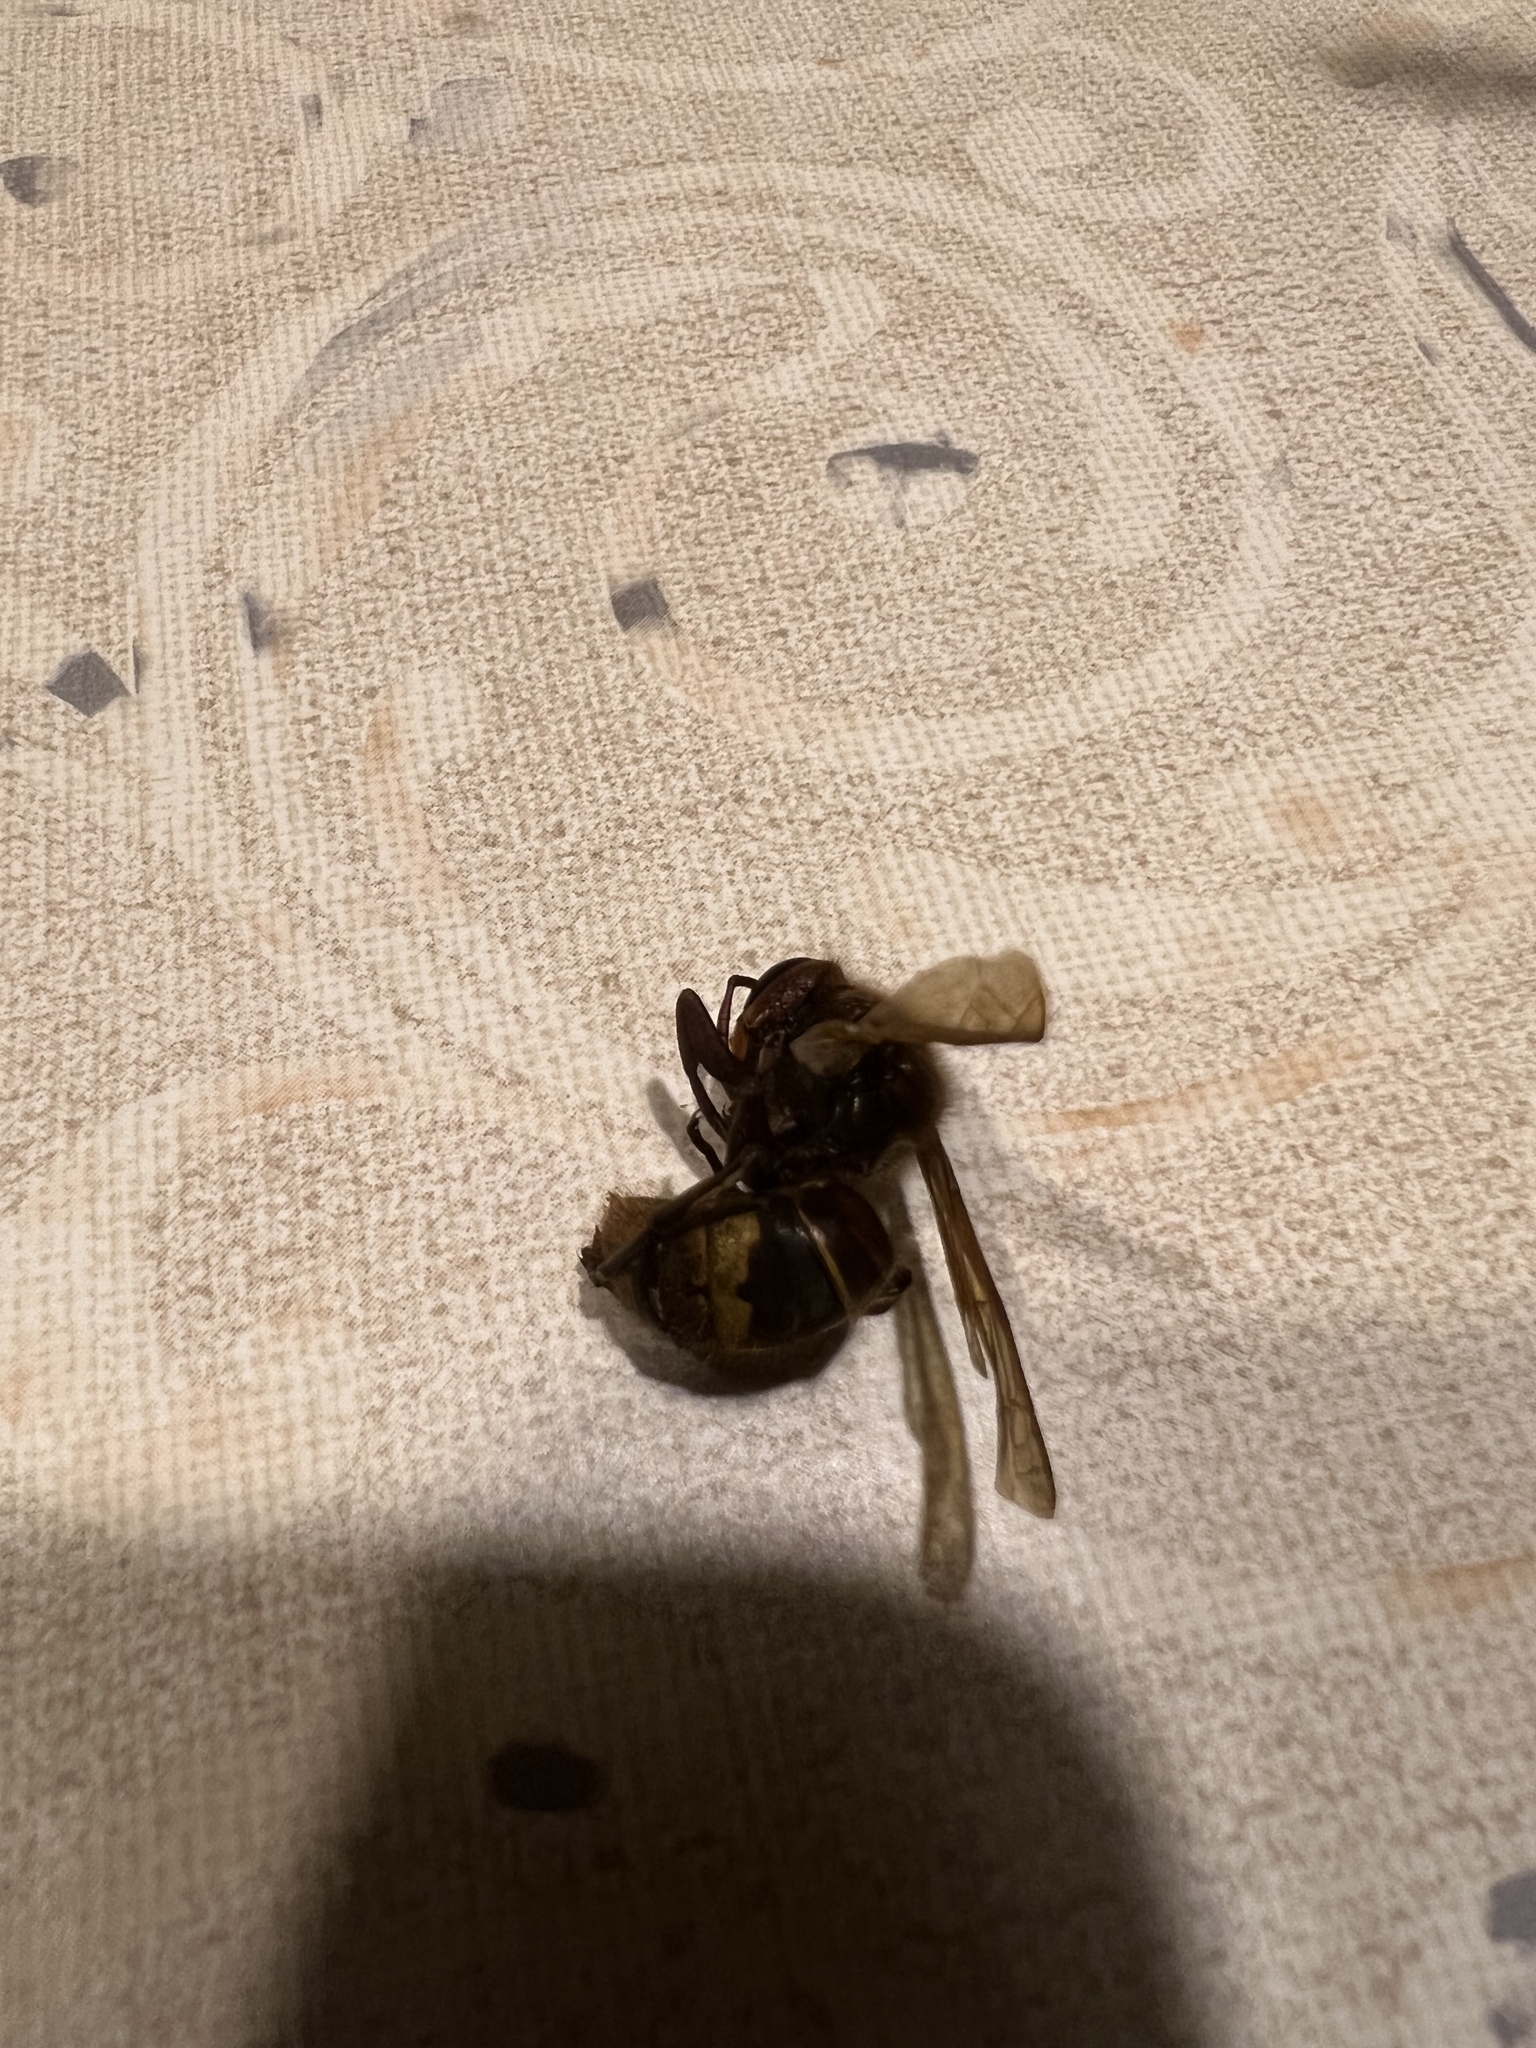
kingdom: Animalia
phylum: Arthropoda
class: Insecta
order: Hymenoptera
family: Vespidae
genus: Vespa
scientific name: Vespa crabro
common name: Hornet
